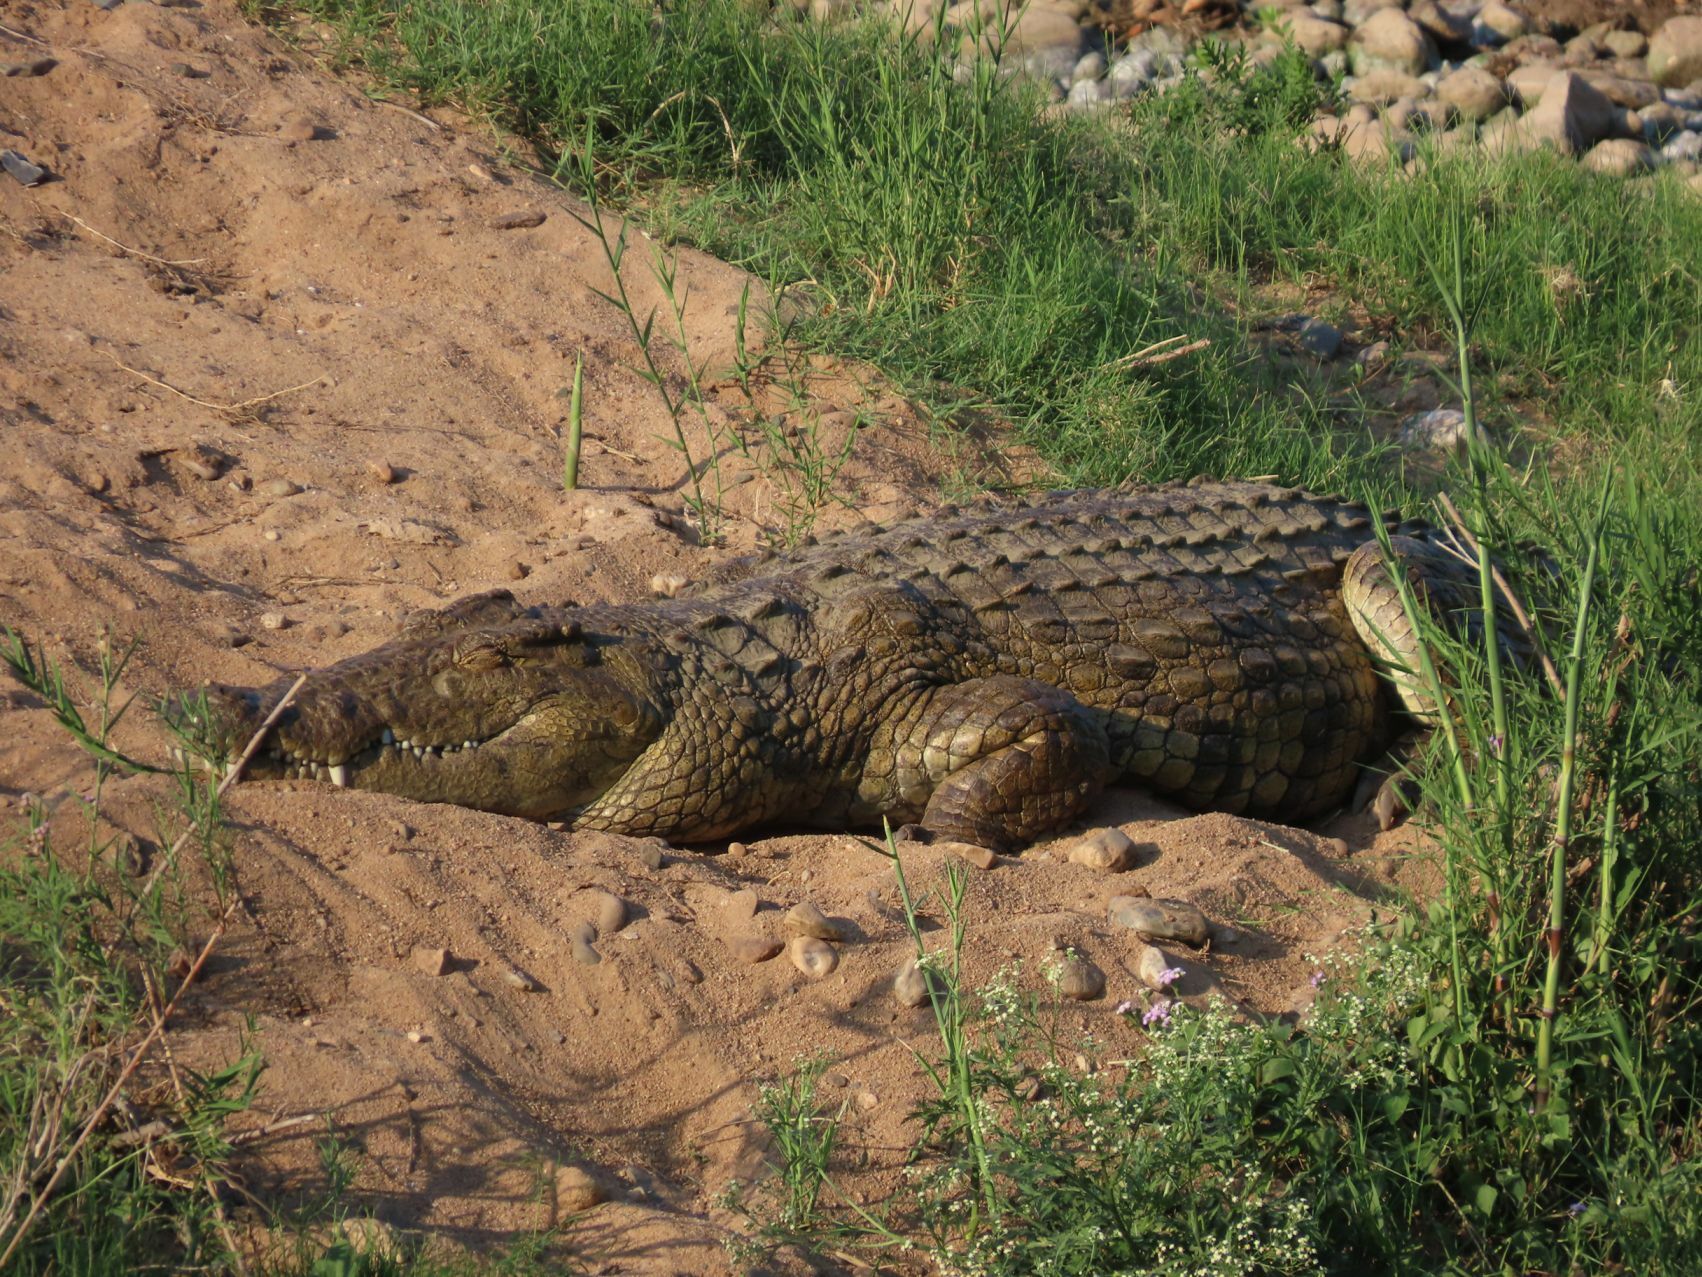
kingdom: Animalia
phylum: Chordata
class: Crocodylia
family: Crocodylidae
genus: Crocodylus
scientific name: Crocodylus niloticus
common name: Nile crocodile
